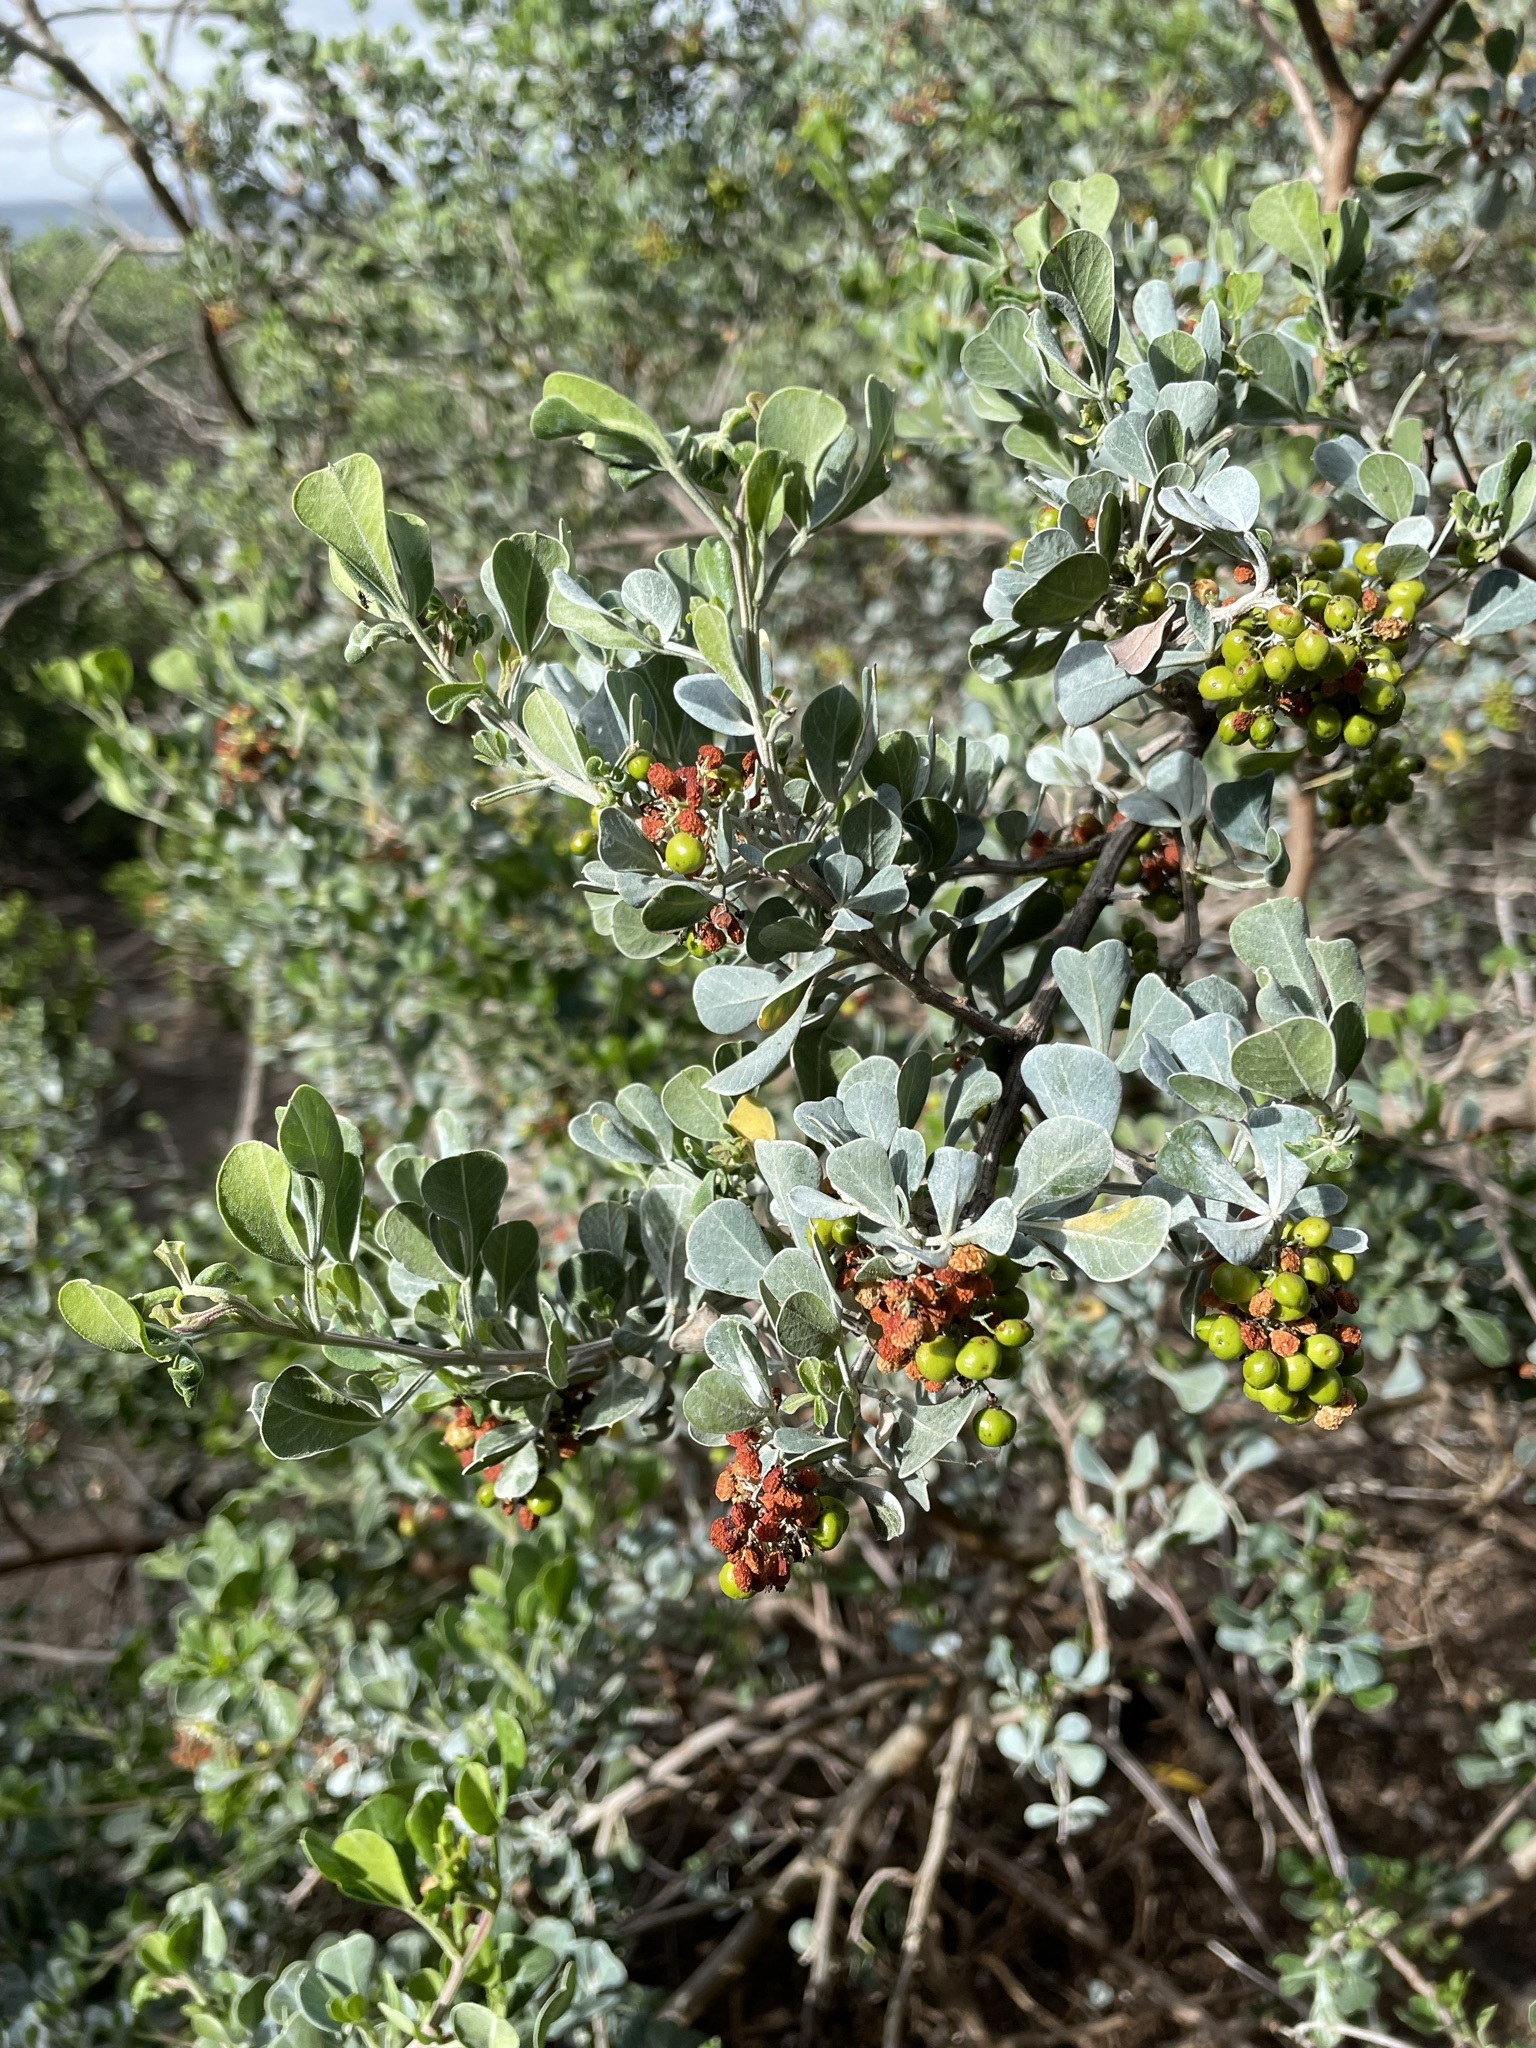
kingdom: Plantae
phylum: Tracheophyta
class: Magnoliopsida
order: Sapindales
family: Anacardiaceae
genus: Searsia
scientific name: Searsia glauca
